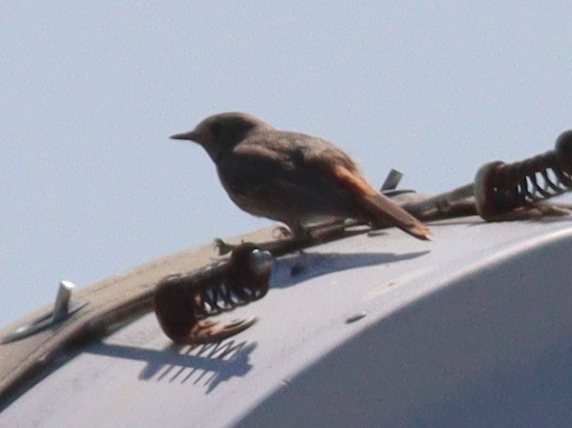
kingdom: Animalia
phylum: Chordata
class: Aves
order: Passeriformes
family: Muscicapidae
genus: Phoenicurus
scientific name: Phoenicurus ochruros
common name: Black redstart
